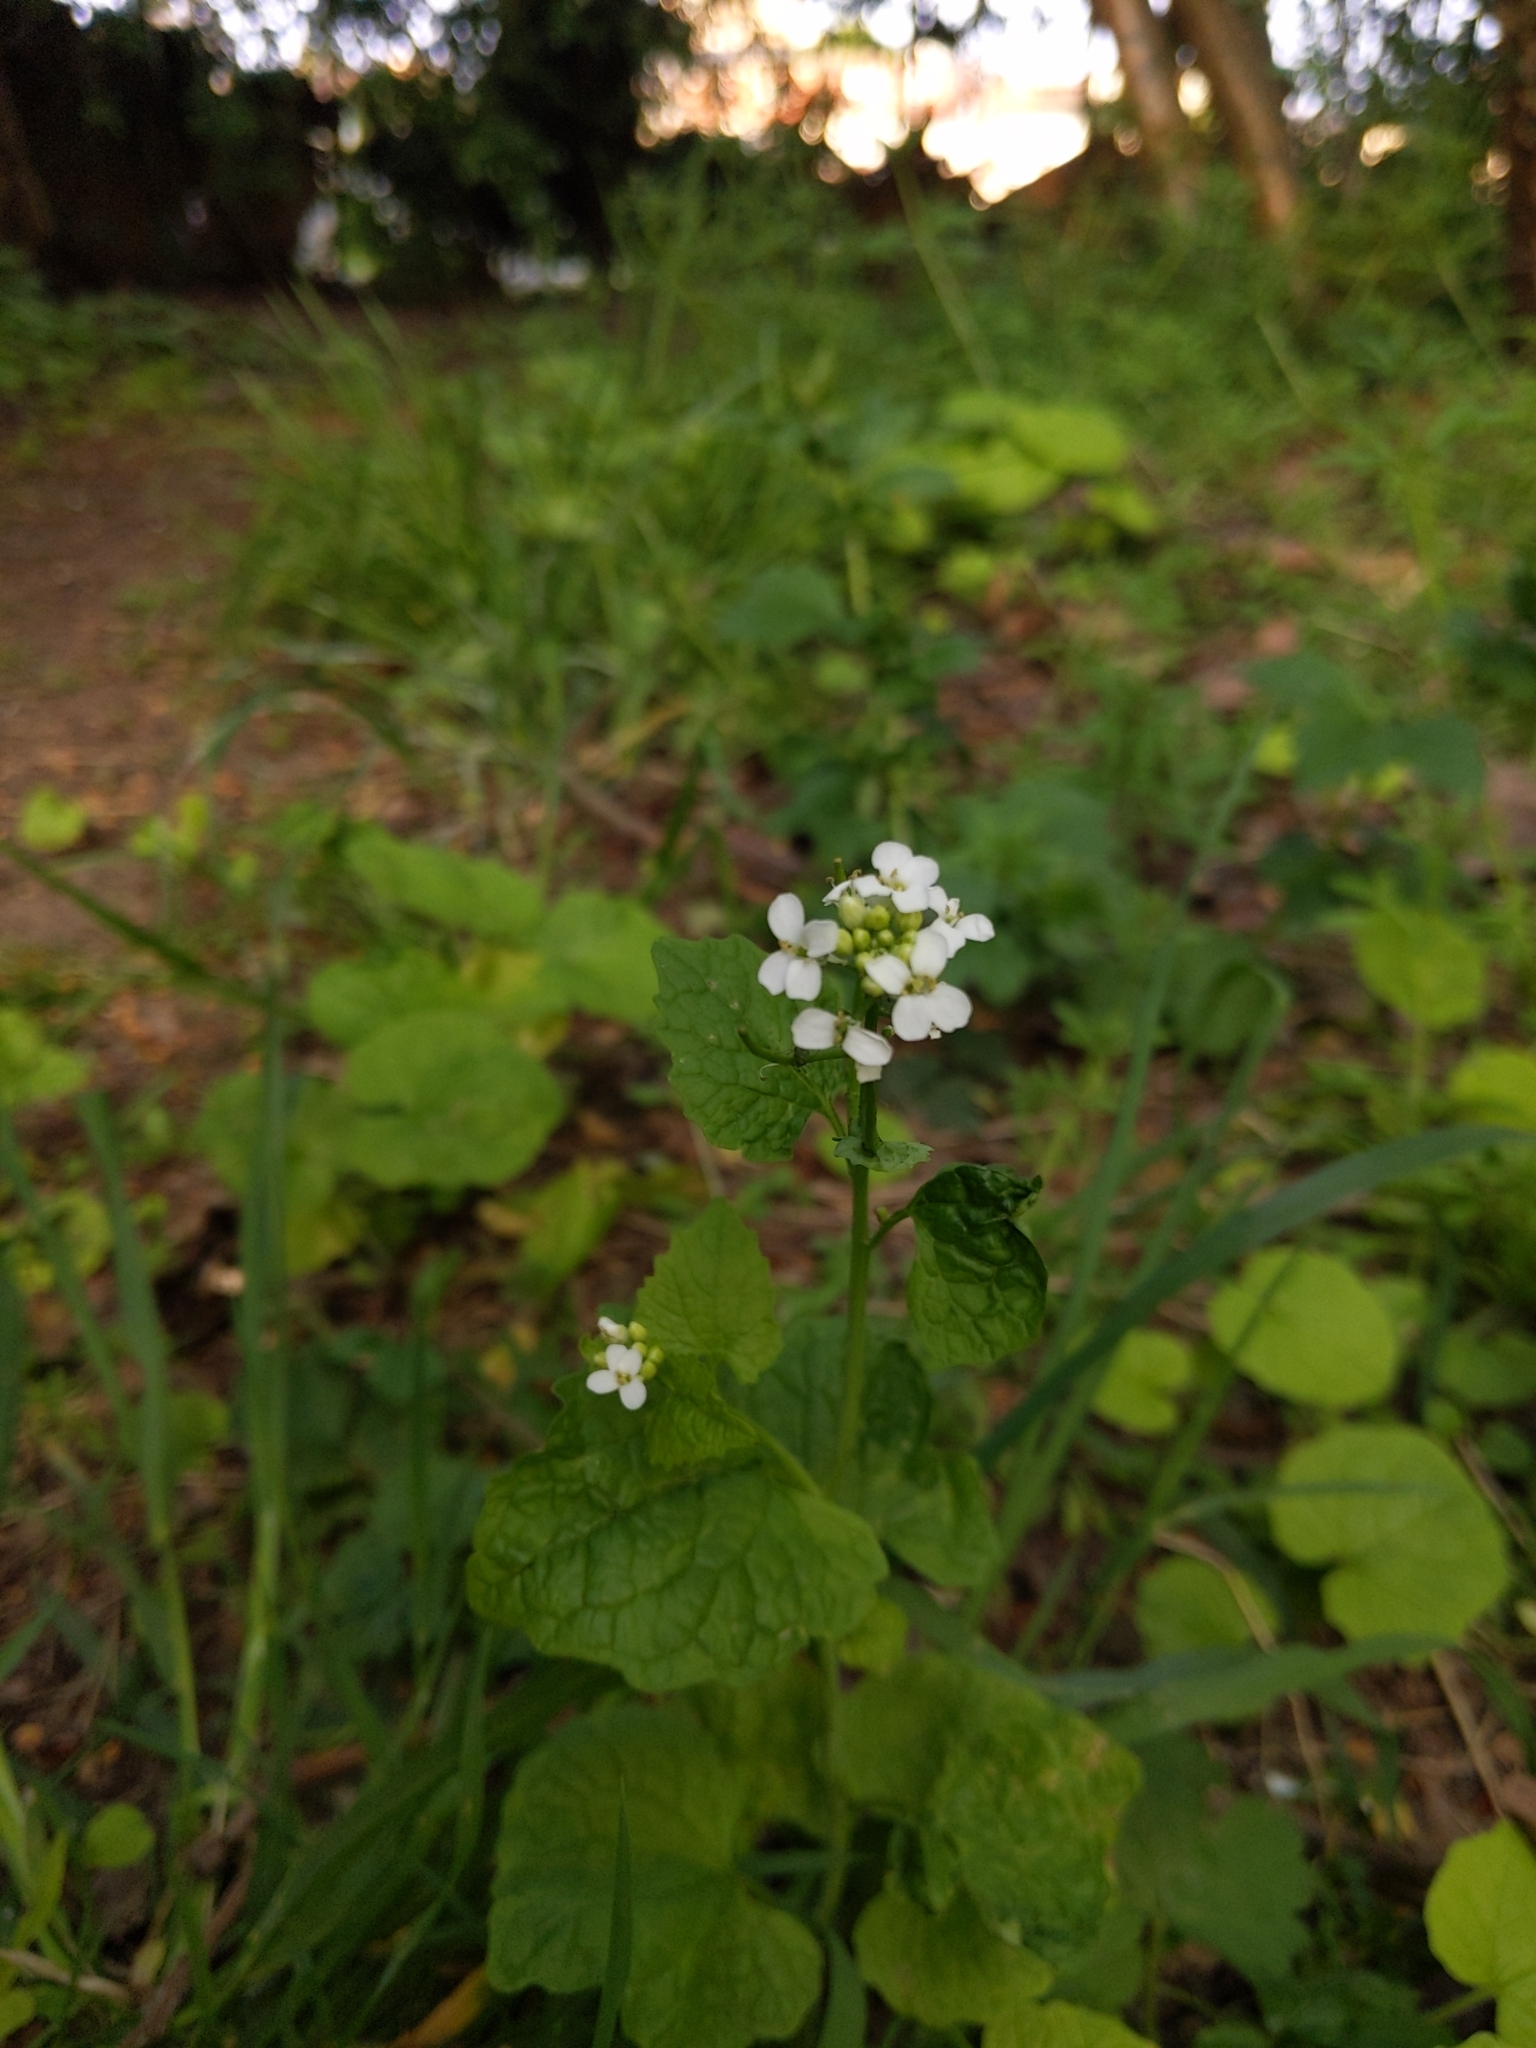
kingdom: Plantae
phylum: Tracheophyta
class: Magnoliopsida
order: Brassicales
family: Brassicaceae
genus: Alliaria
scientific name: Alliaria petiolata
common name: Garlic mustard
